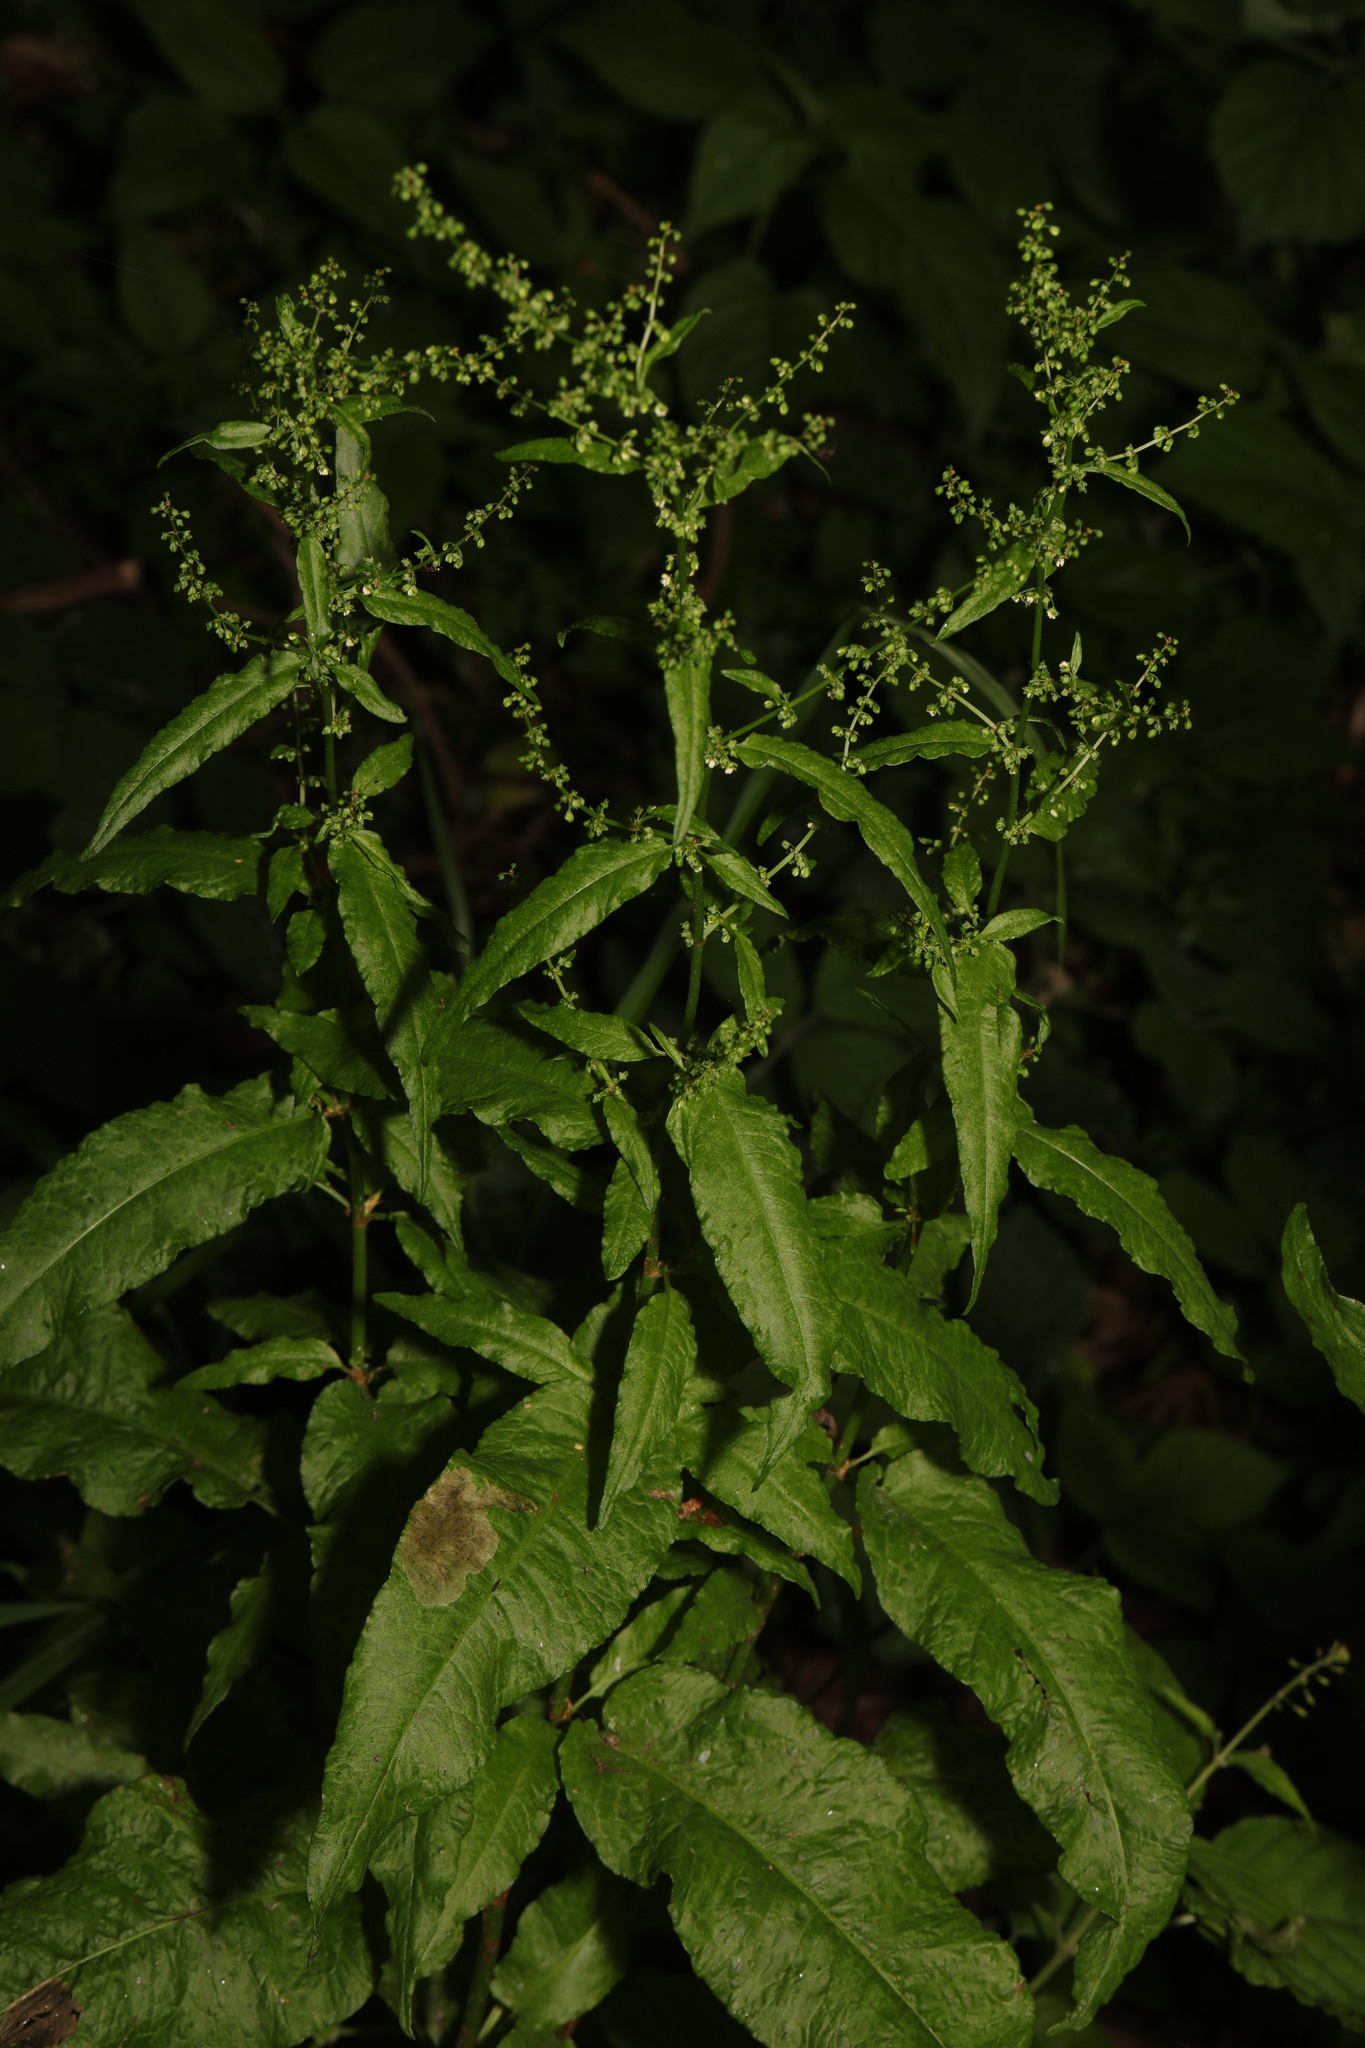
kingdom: Plantae
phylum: Tracheophyta
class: Magnoliopsida
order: Caryophyllales
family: Polygonaceae
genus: Rumex
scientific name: Rumex sanguineus
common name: Wood dock
